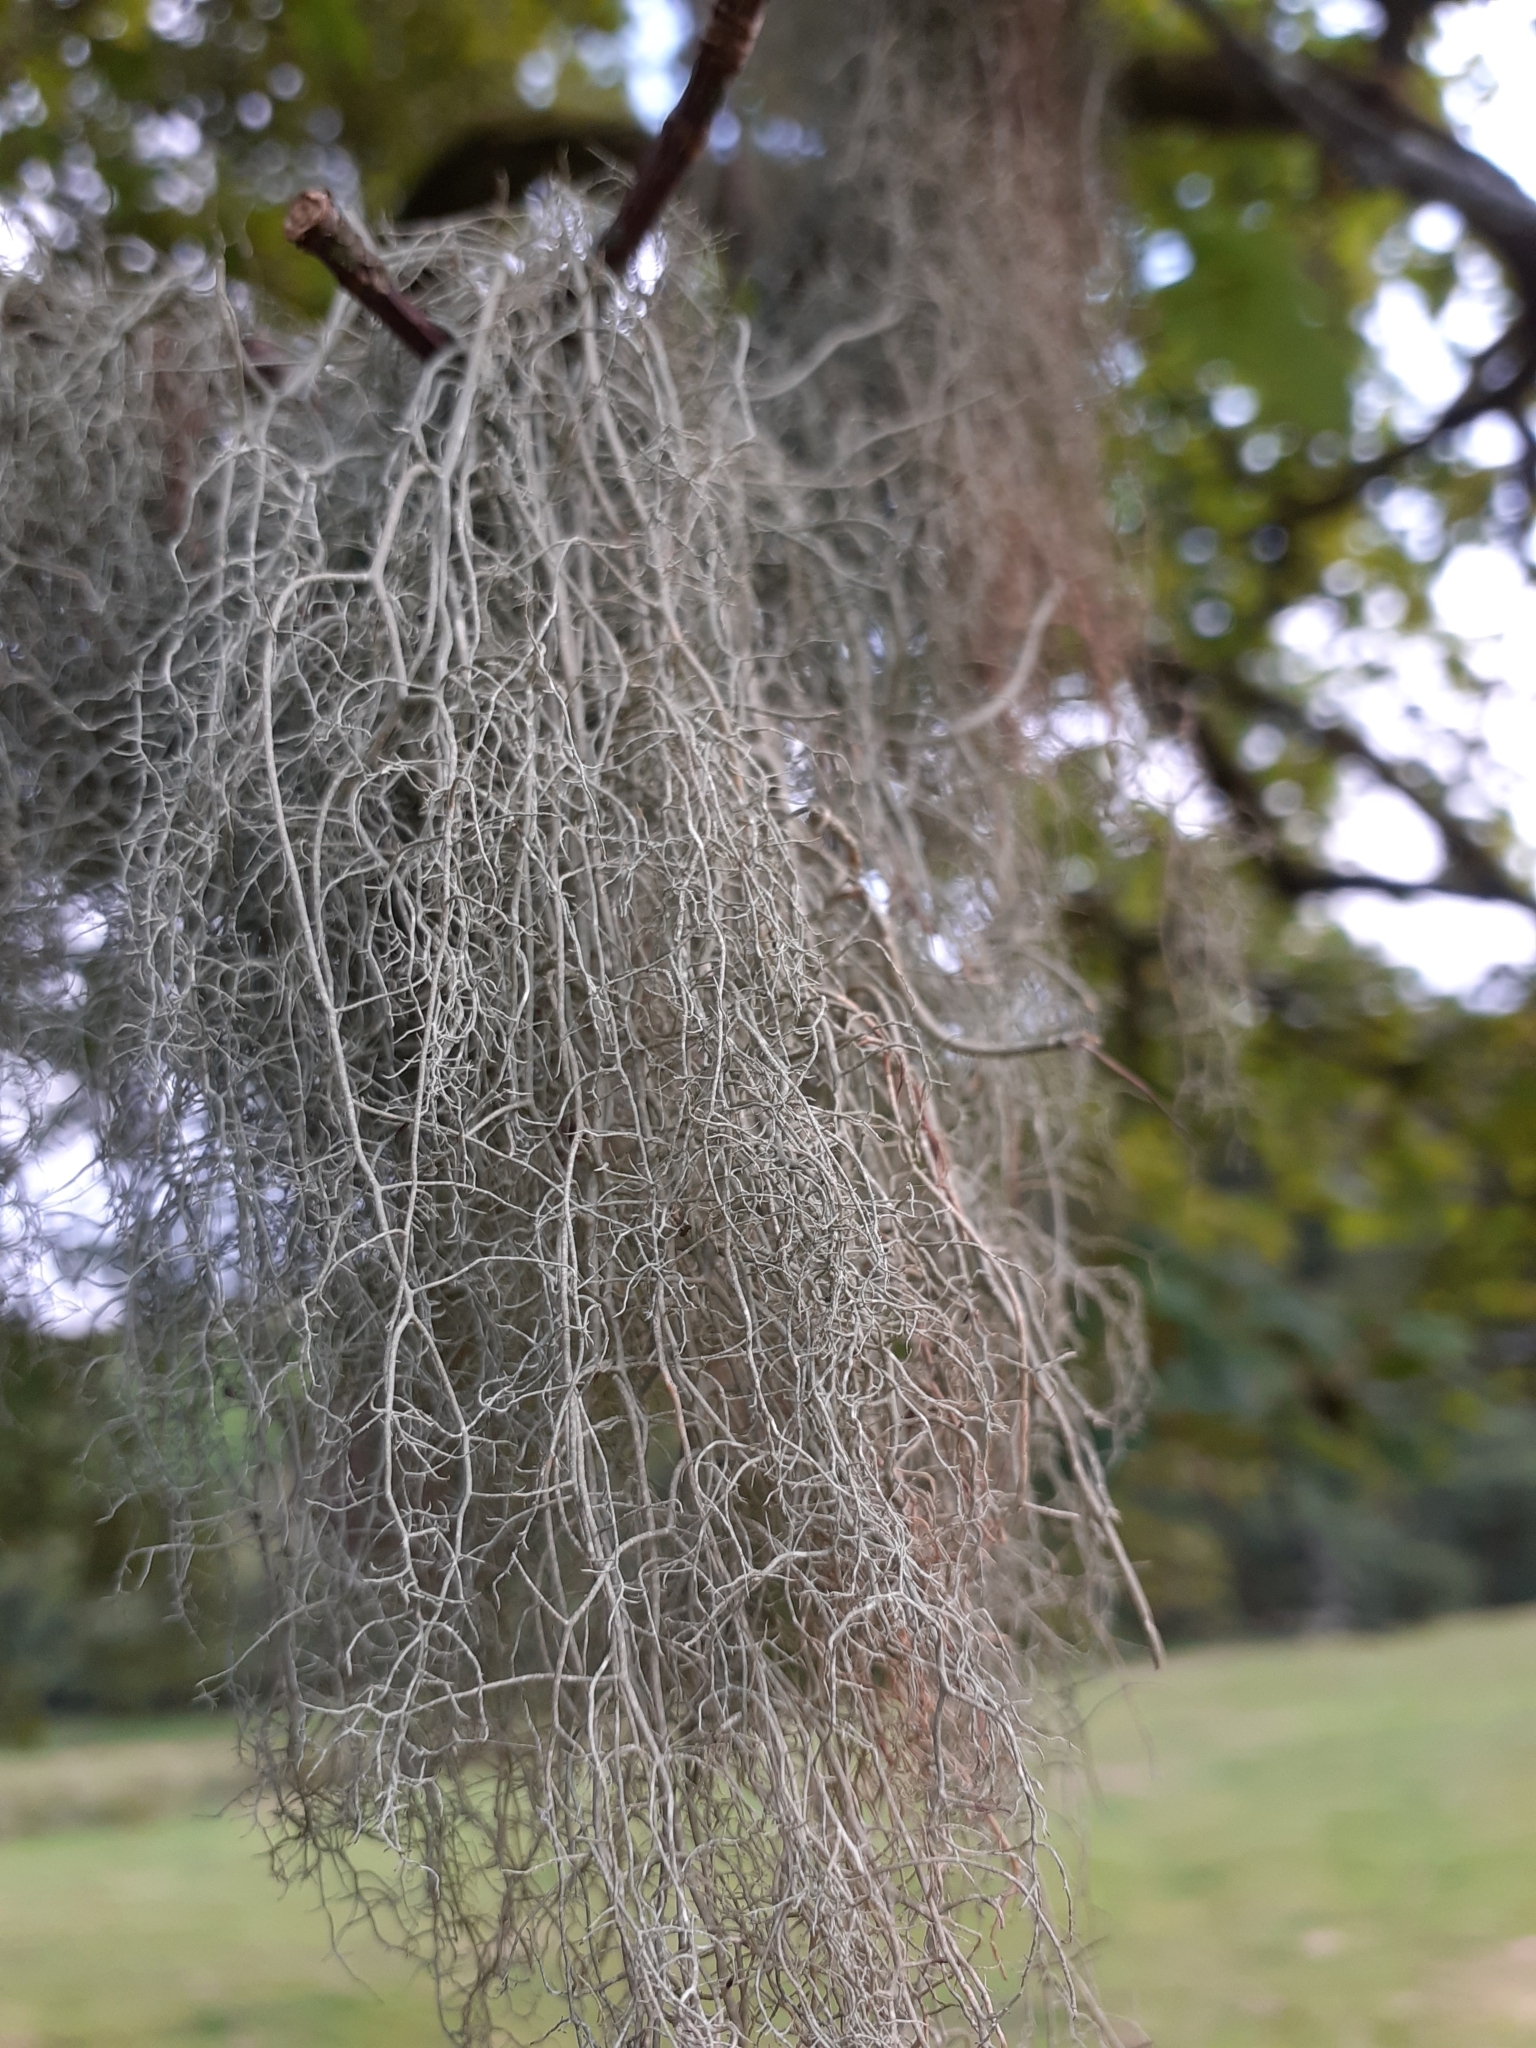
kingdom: Fungi
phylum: Ascomycota
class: Lecanoromycetes
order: Lecanorales
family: Parmeliaceae
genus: Usnea
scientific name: Usnea articulata
